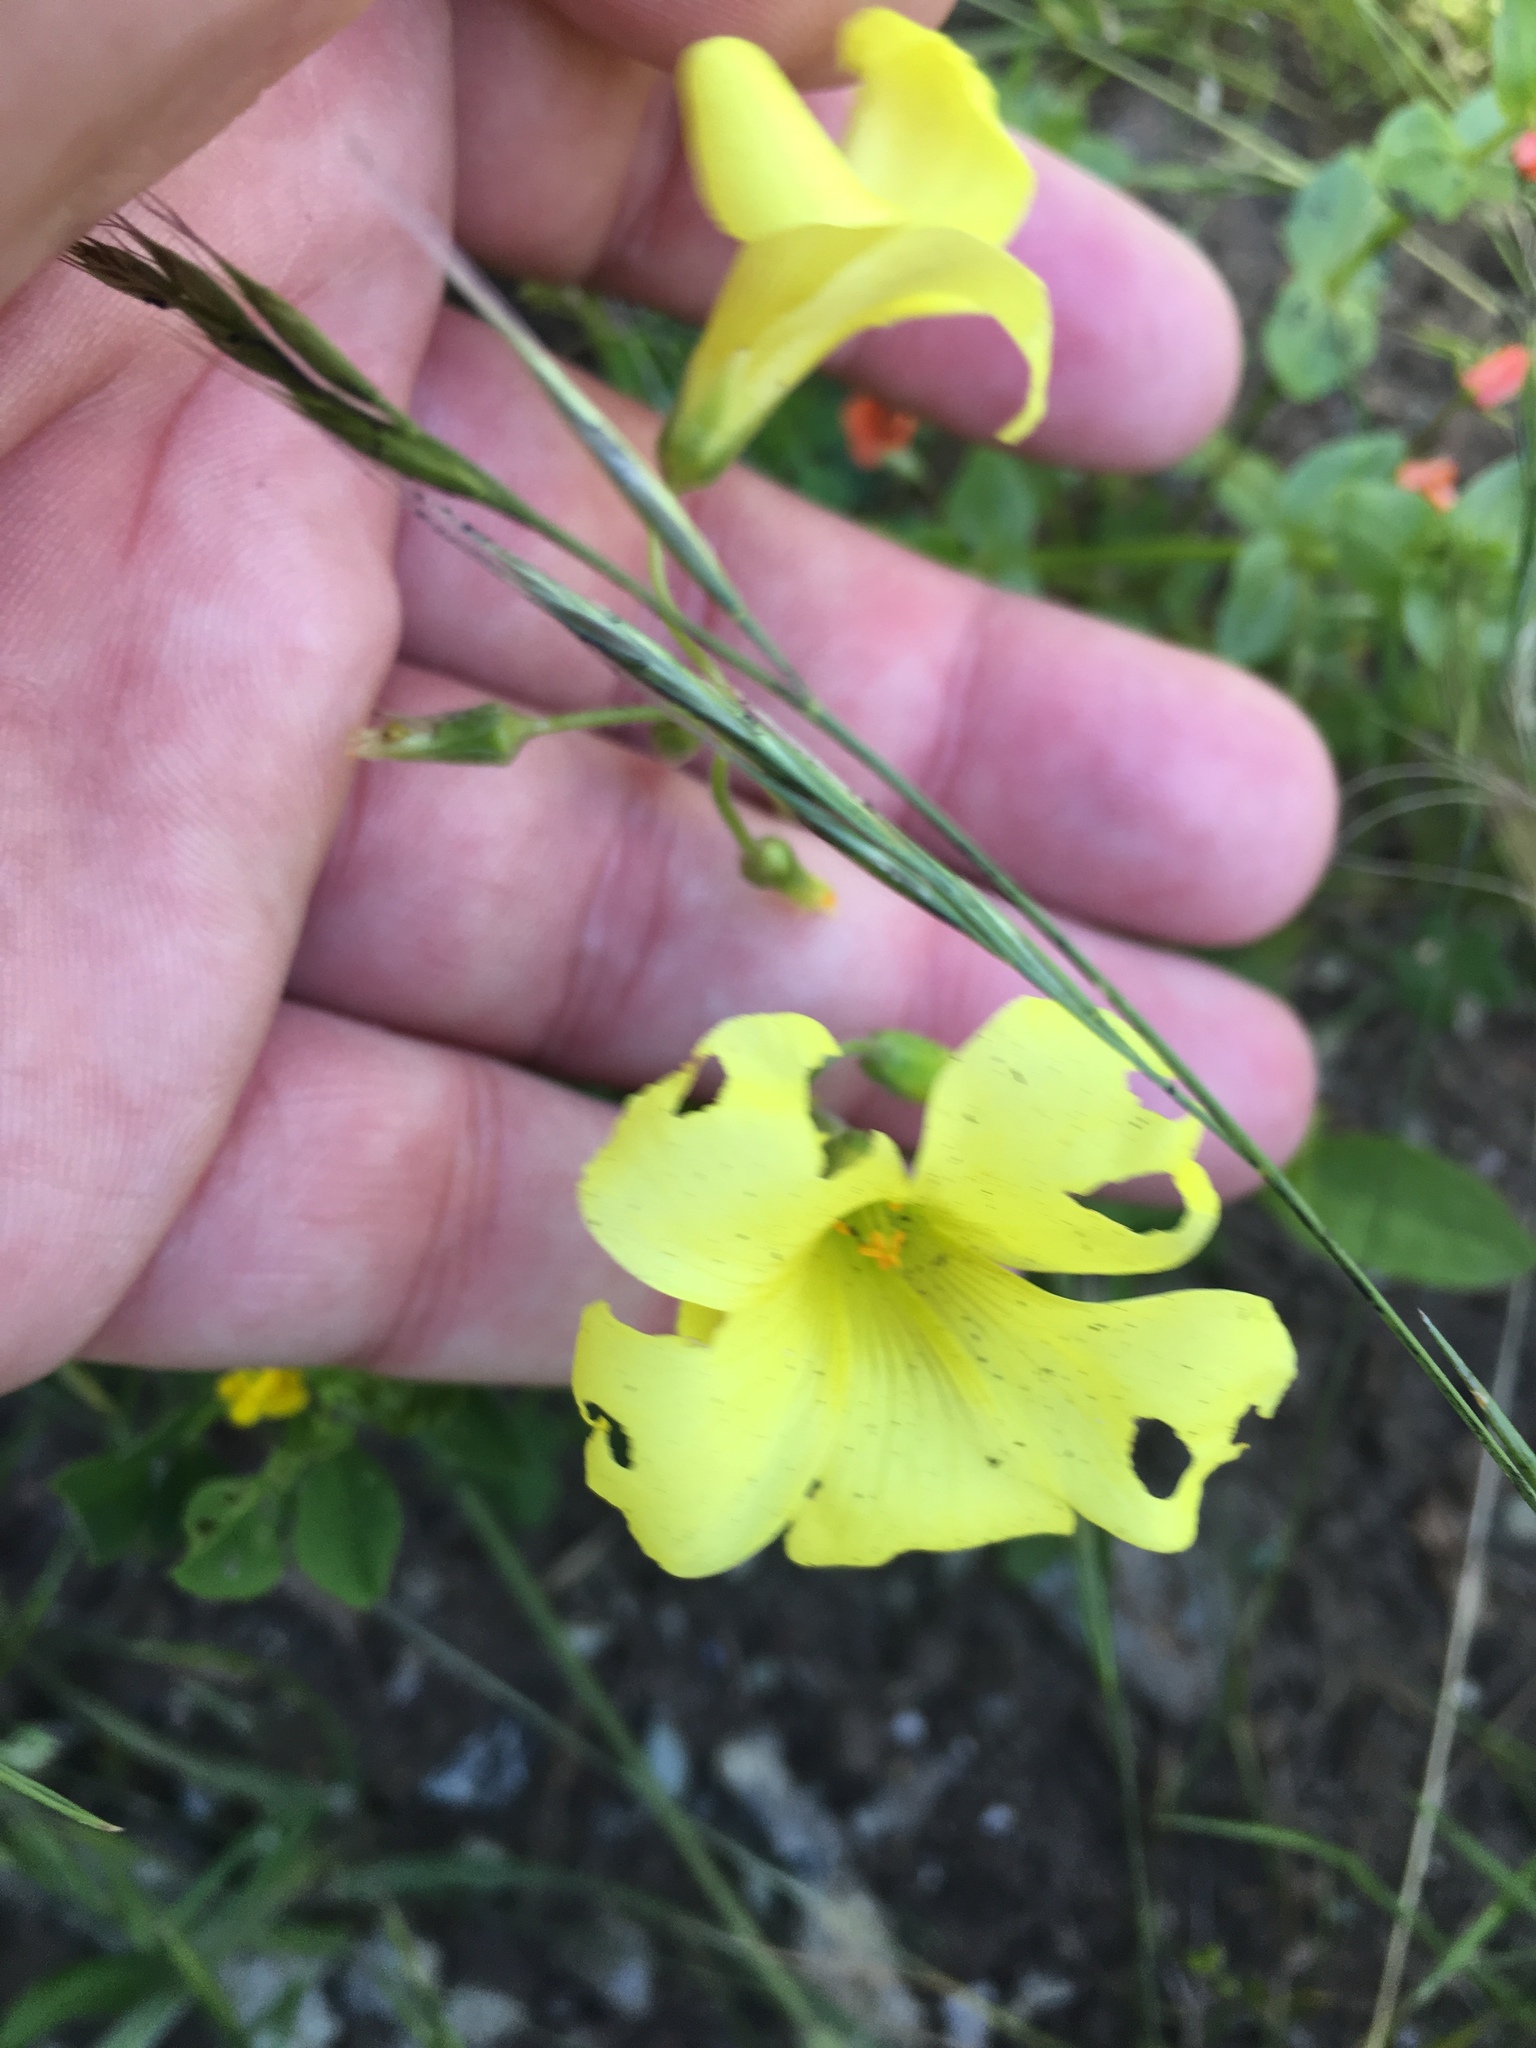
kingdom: Plantae
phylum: Tracheophyta
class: Magnoliopsida
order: Oxalidales
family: Oxalidaceae
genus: Oxalis
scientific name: Oxalis pes-caprae
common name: Bermuda-buttercup
